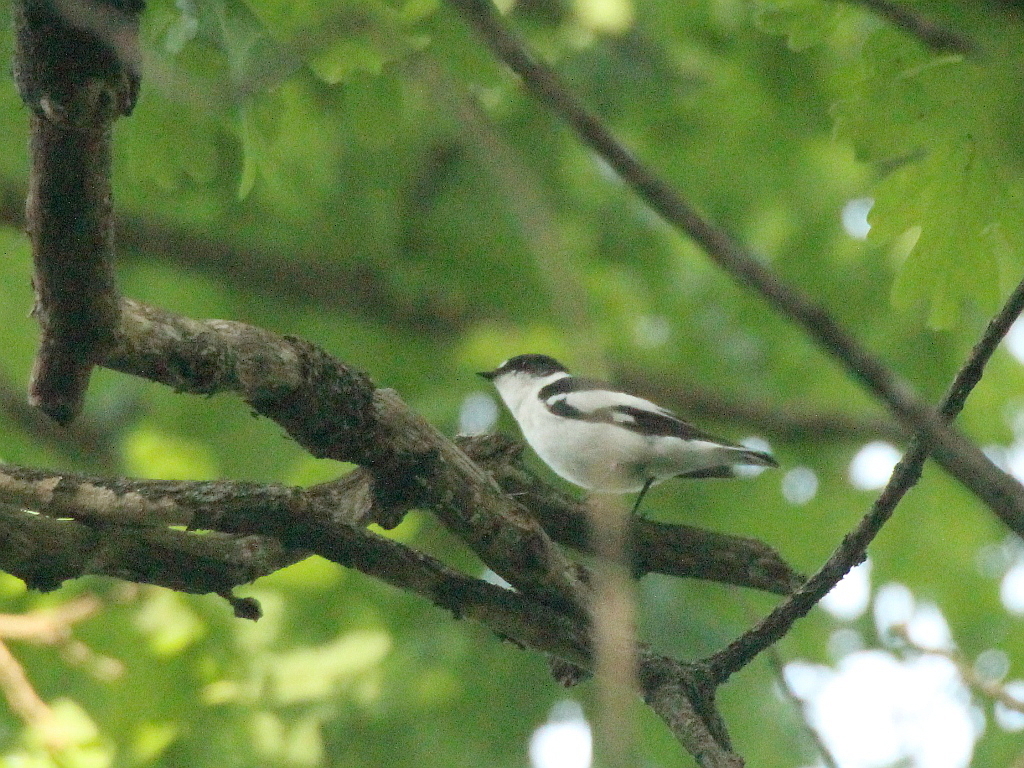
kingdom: Animalia
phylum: Chordata
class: Aves
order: Passeriformes
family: Muscicapidae
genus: Ficedula
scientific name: Ficedula semitorquata
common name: Semicollared flycatcher
